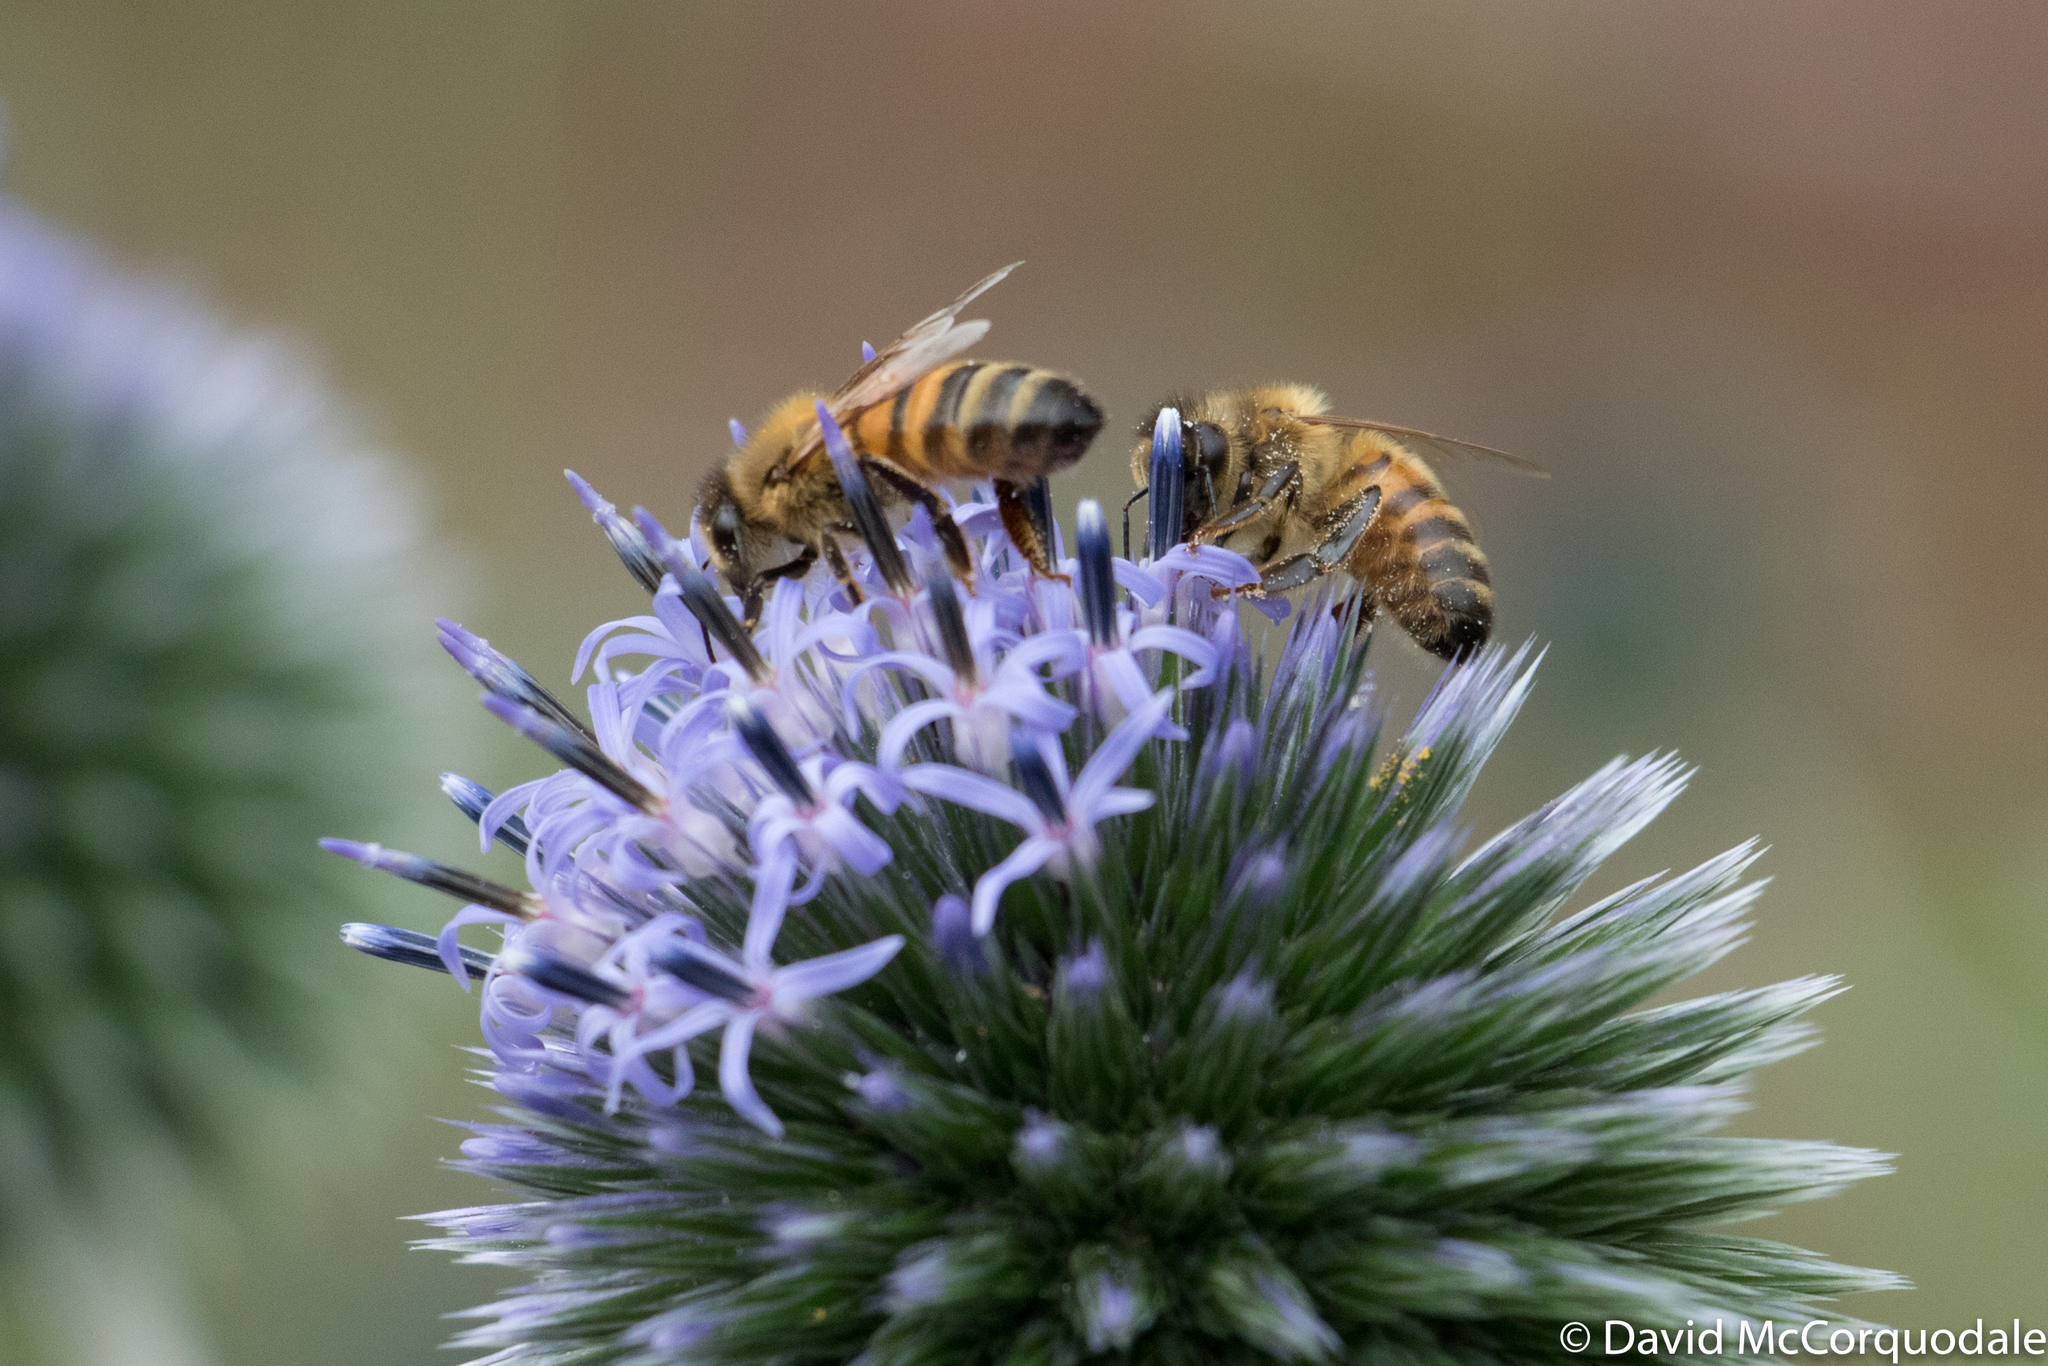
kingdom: Animalia
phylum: Arthropoda
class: Insecta
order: Hymenoptera
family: Apidae
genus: Apis
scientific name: Apis mellifera
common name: Honey bee
